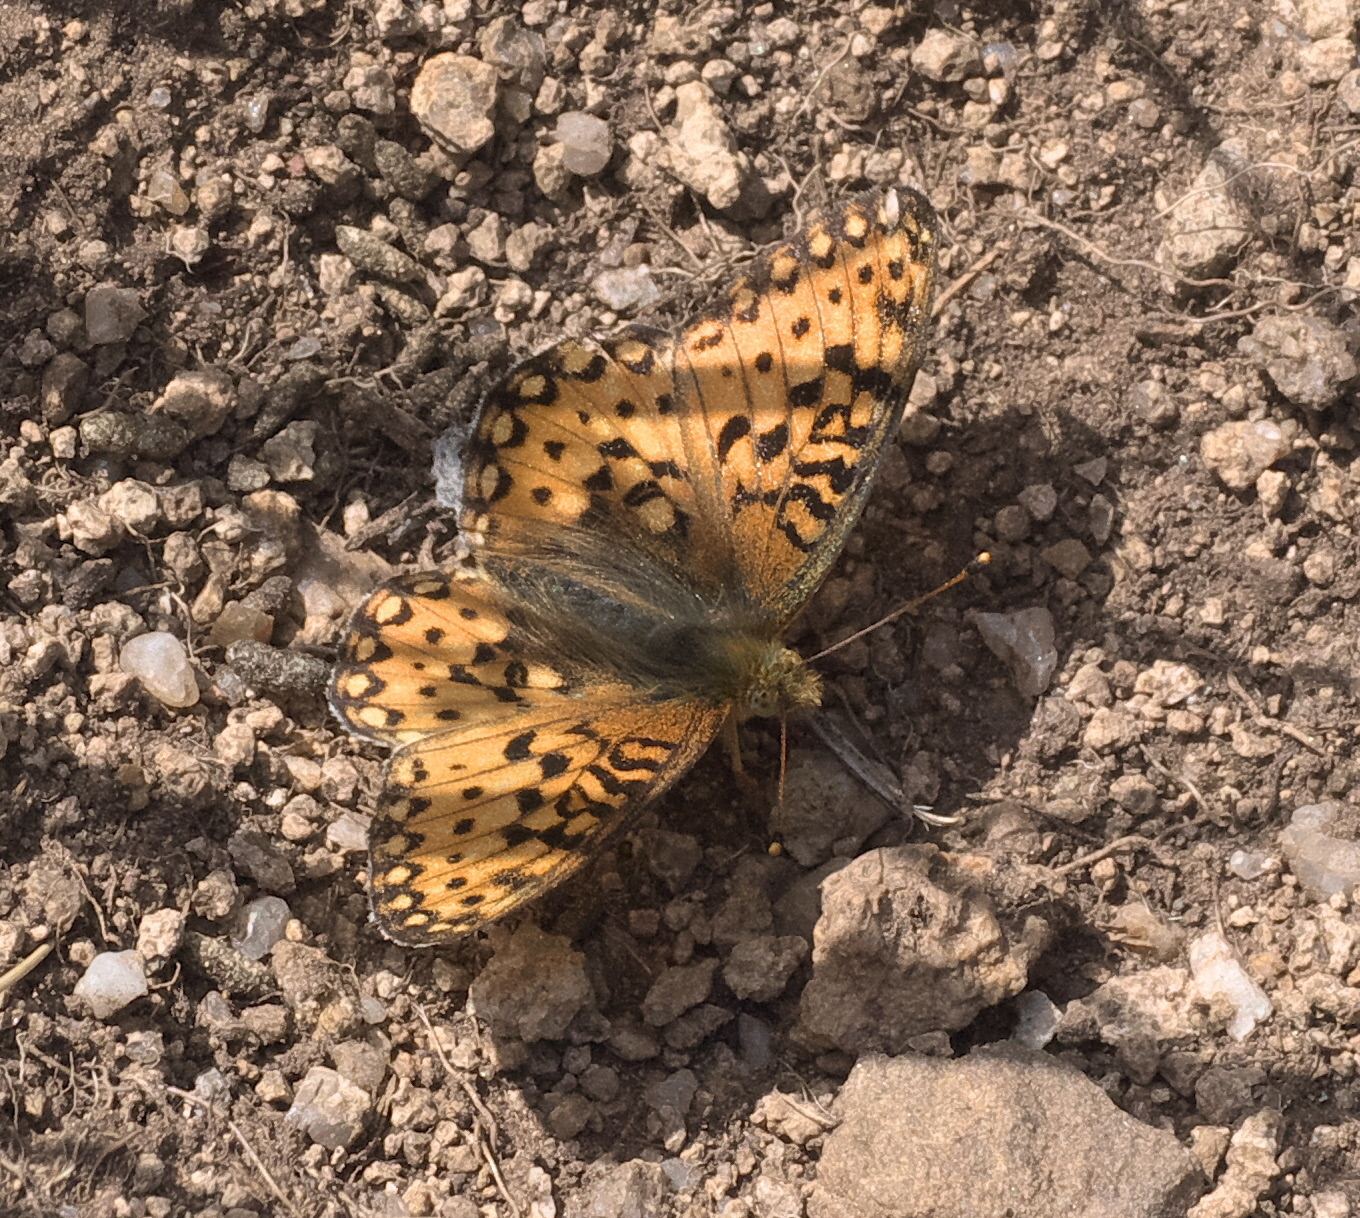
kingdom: Animalia
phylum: Arthropoda
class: Insecta
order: Lepidoptera
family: Nymphalidae
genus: Speyeria
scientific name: Speyeria mormonia
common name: Mormon fritillary
